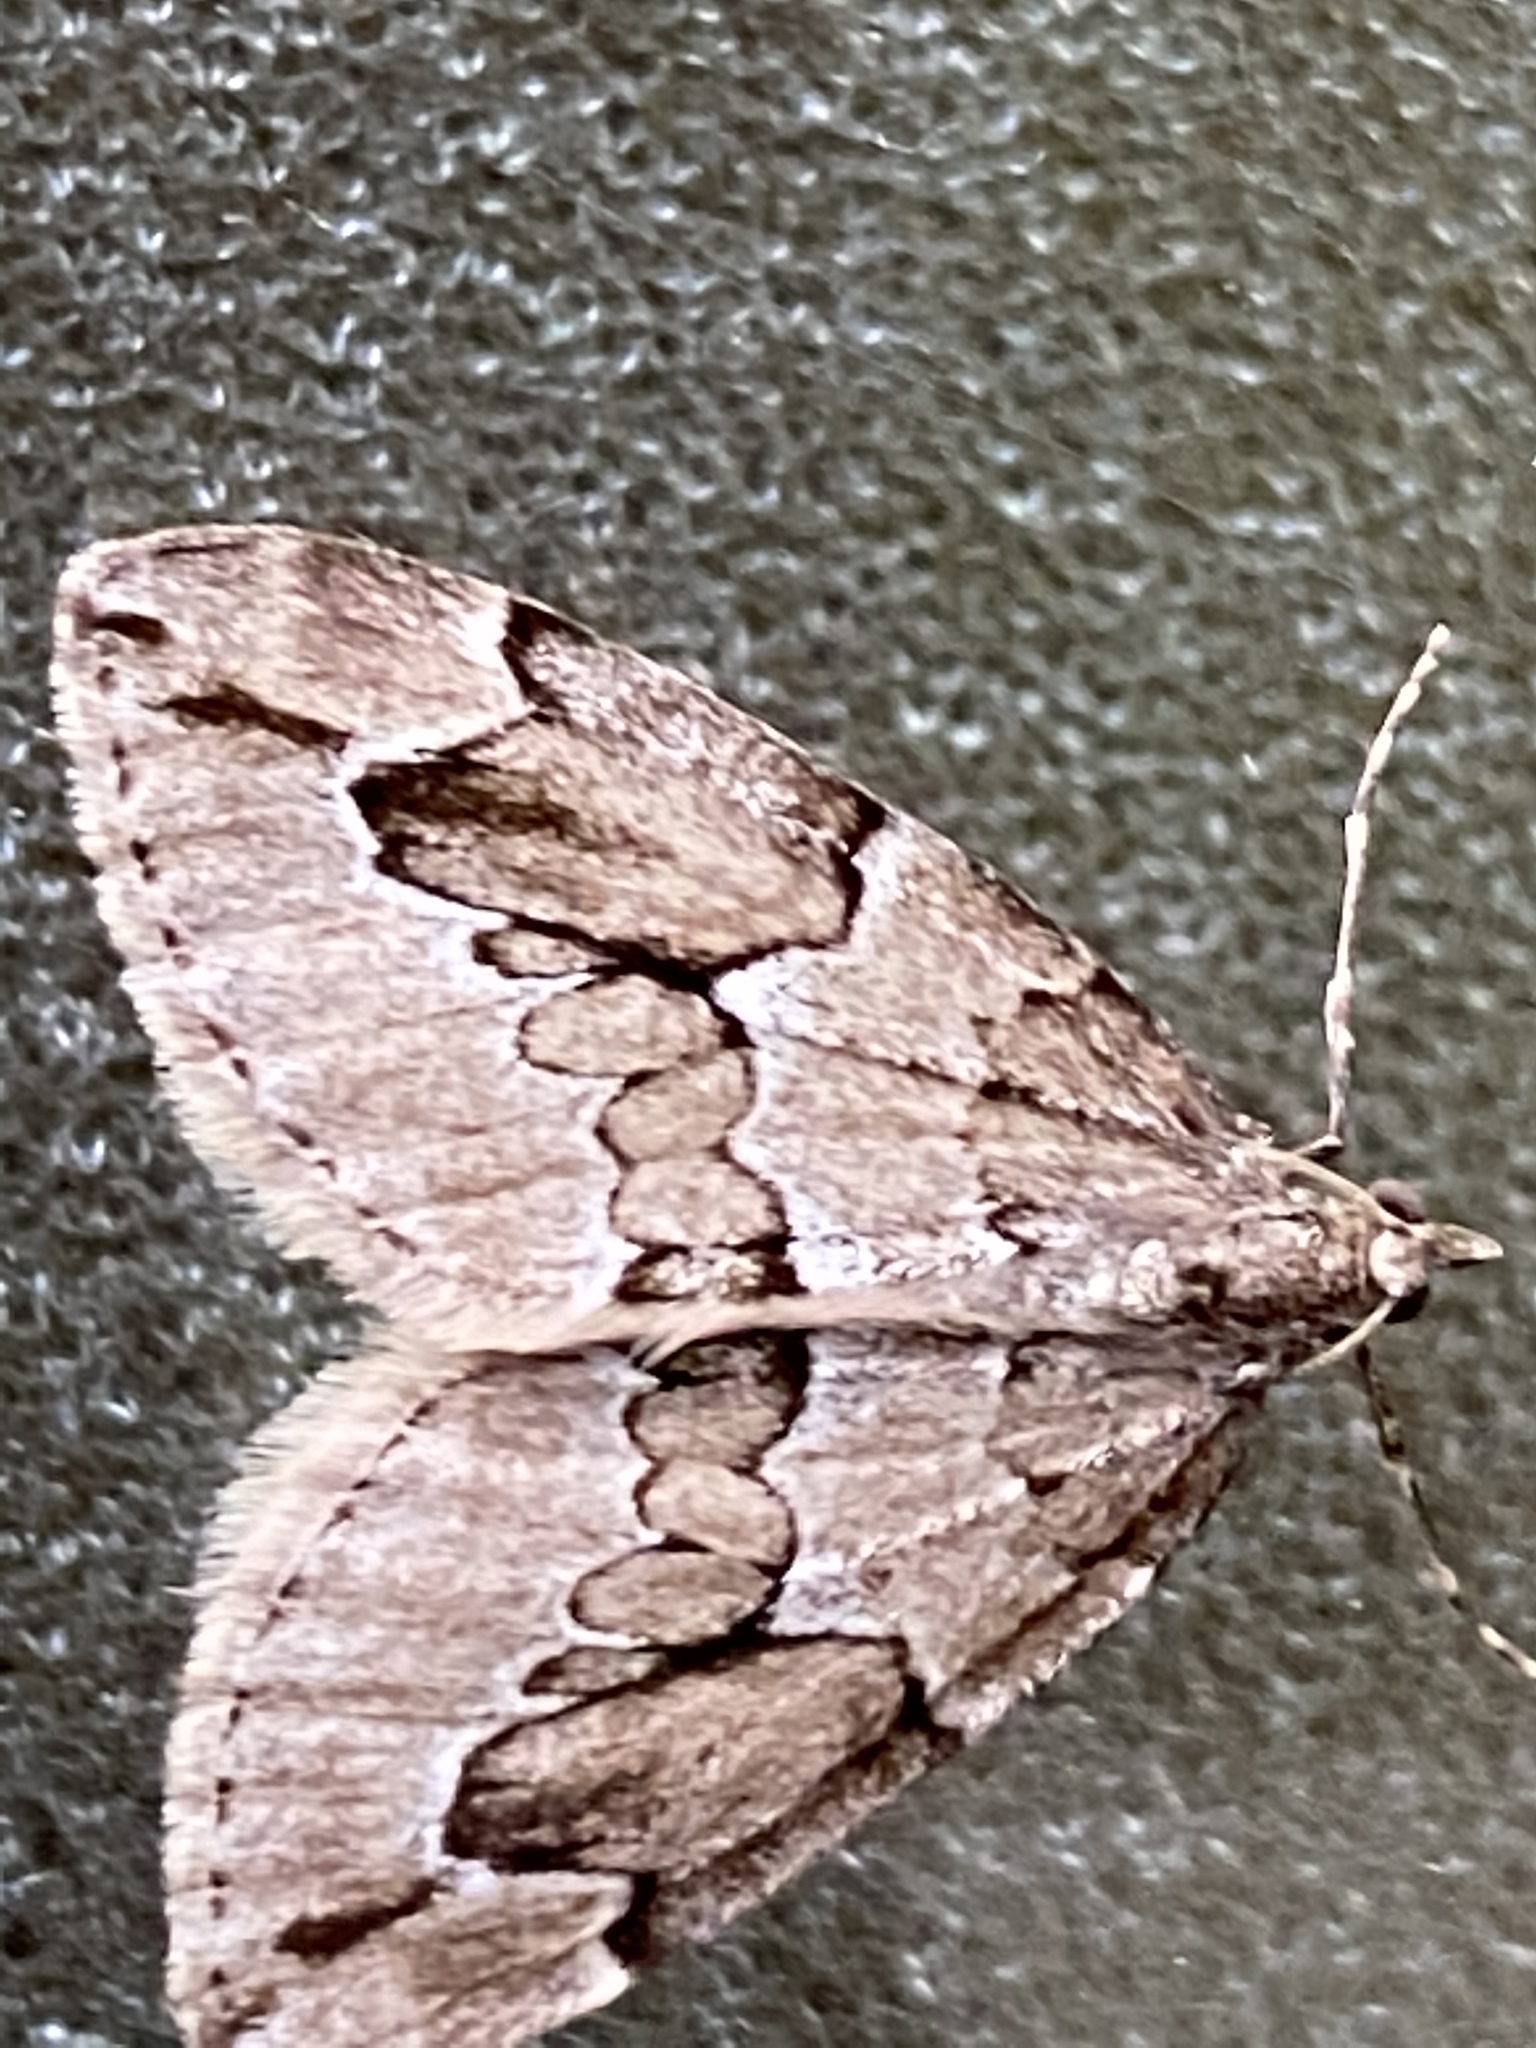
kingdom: Animalia
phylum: Arthropoda
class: Insecta
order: Lepidoptera
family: Geometridae
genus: Thera
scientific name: Thera juniperata
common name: Juniper carpet
